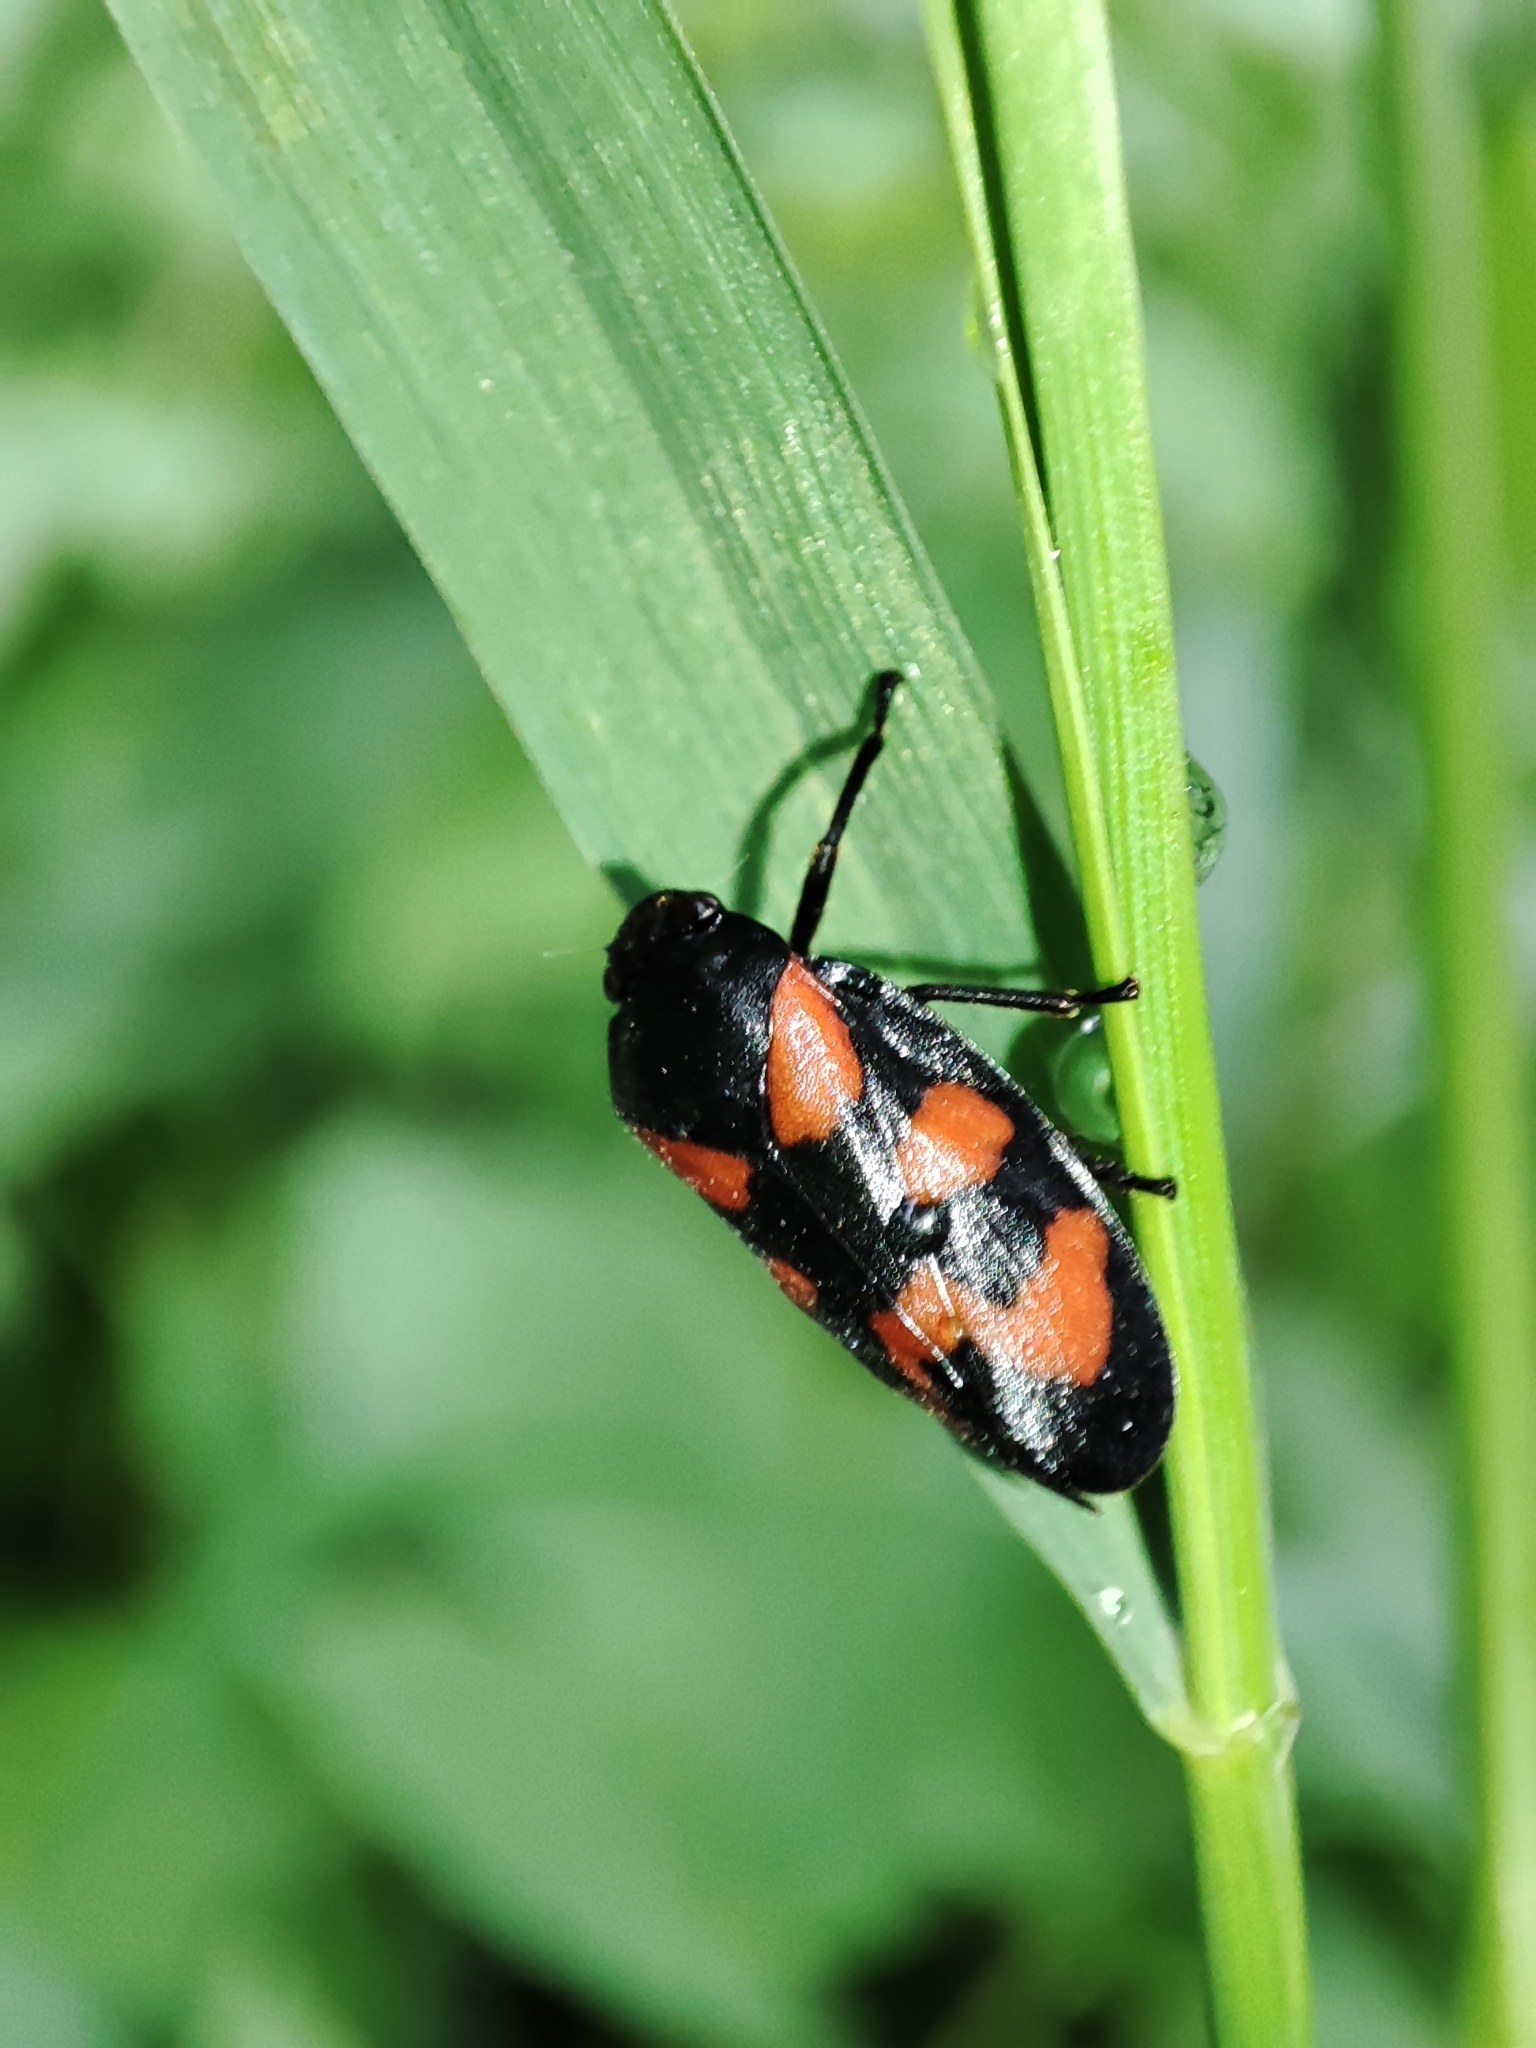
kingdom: Animalia
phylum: Arthropoda
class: Insecta
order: Hemiptera
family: Cercopidae
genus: Cercopis
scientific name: Cercopis vulnerata
